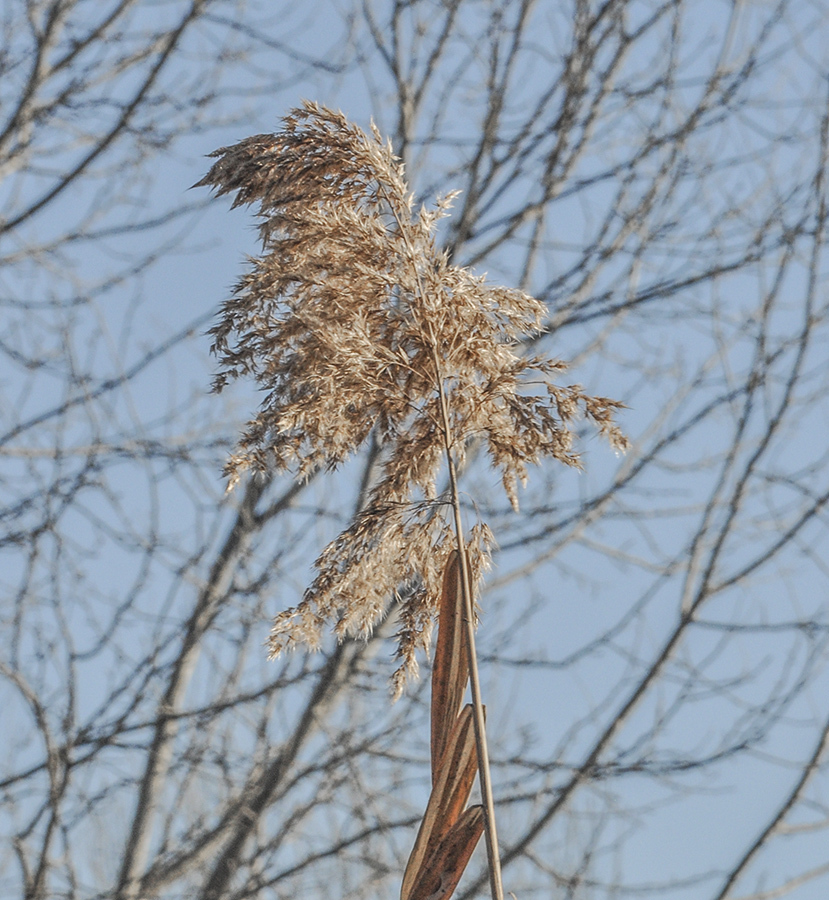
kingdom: Plantae
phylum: Tracheophyta
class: Liliopsida
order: Poales
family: Poaceae
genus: Phragmites
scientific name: Phragmites australis
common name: Common reed
